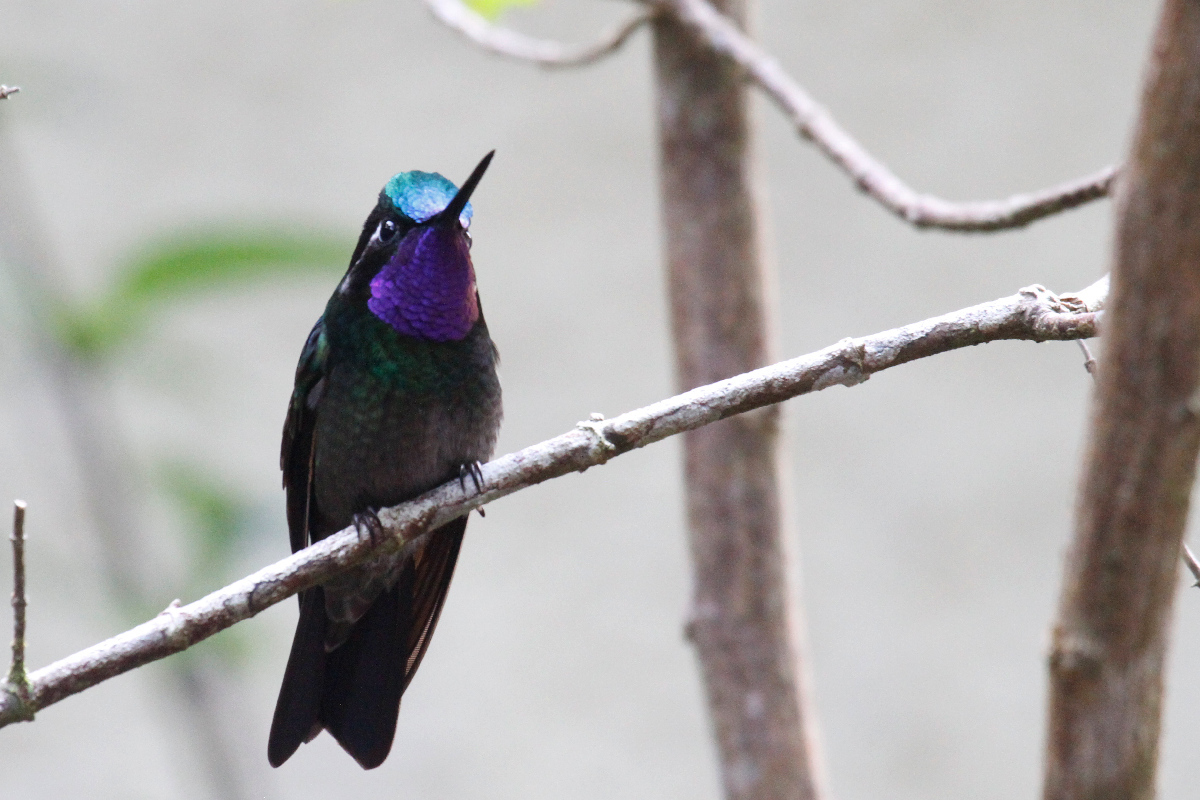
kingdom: Animalia
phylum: Chordata
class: Aves
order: Apodiformes
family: Trochilidae
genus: Lampornis
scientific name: Lampornis calolaemus
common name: Purple-throated mountain-gem
